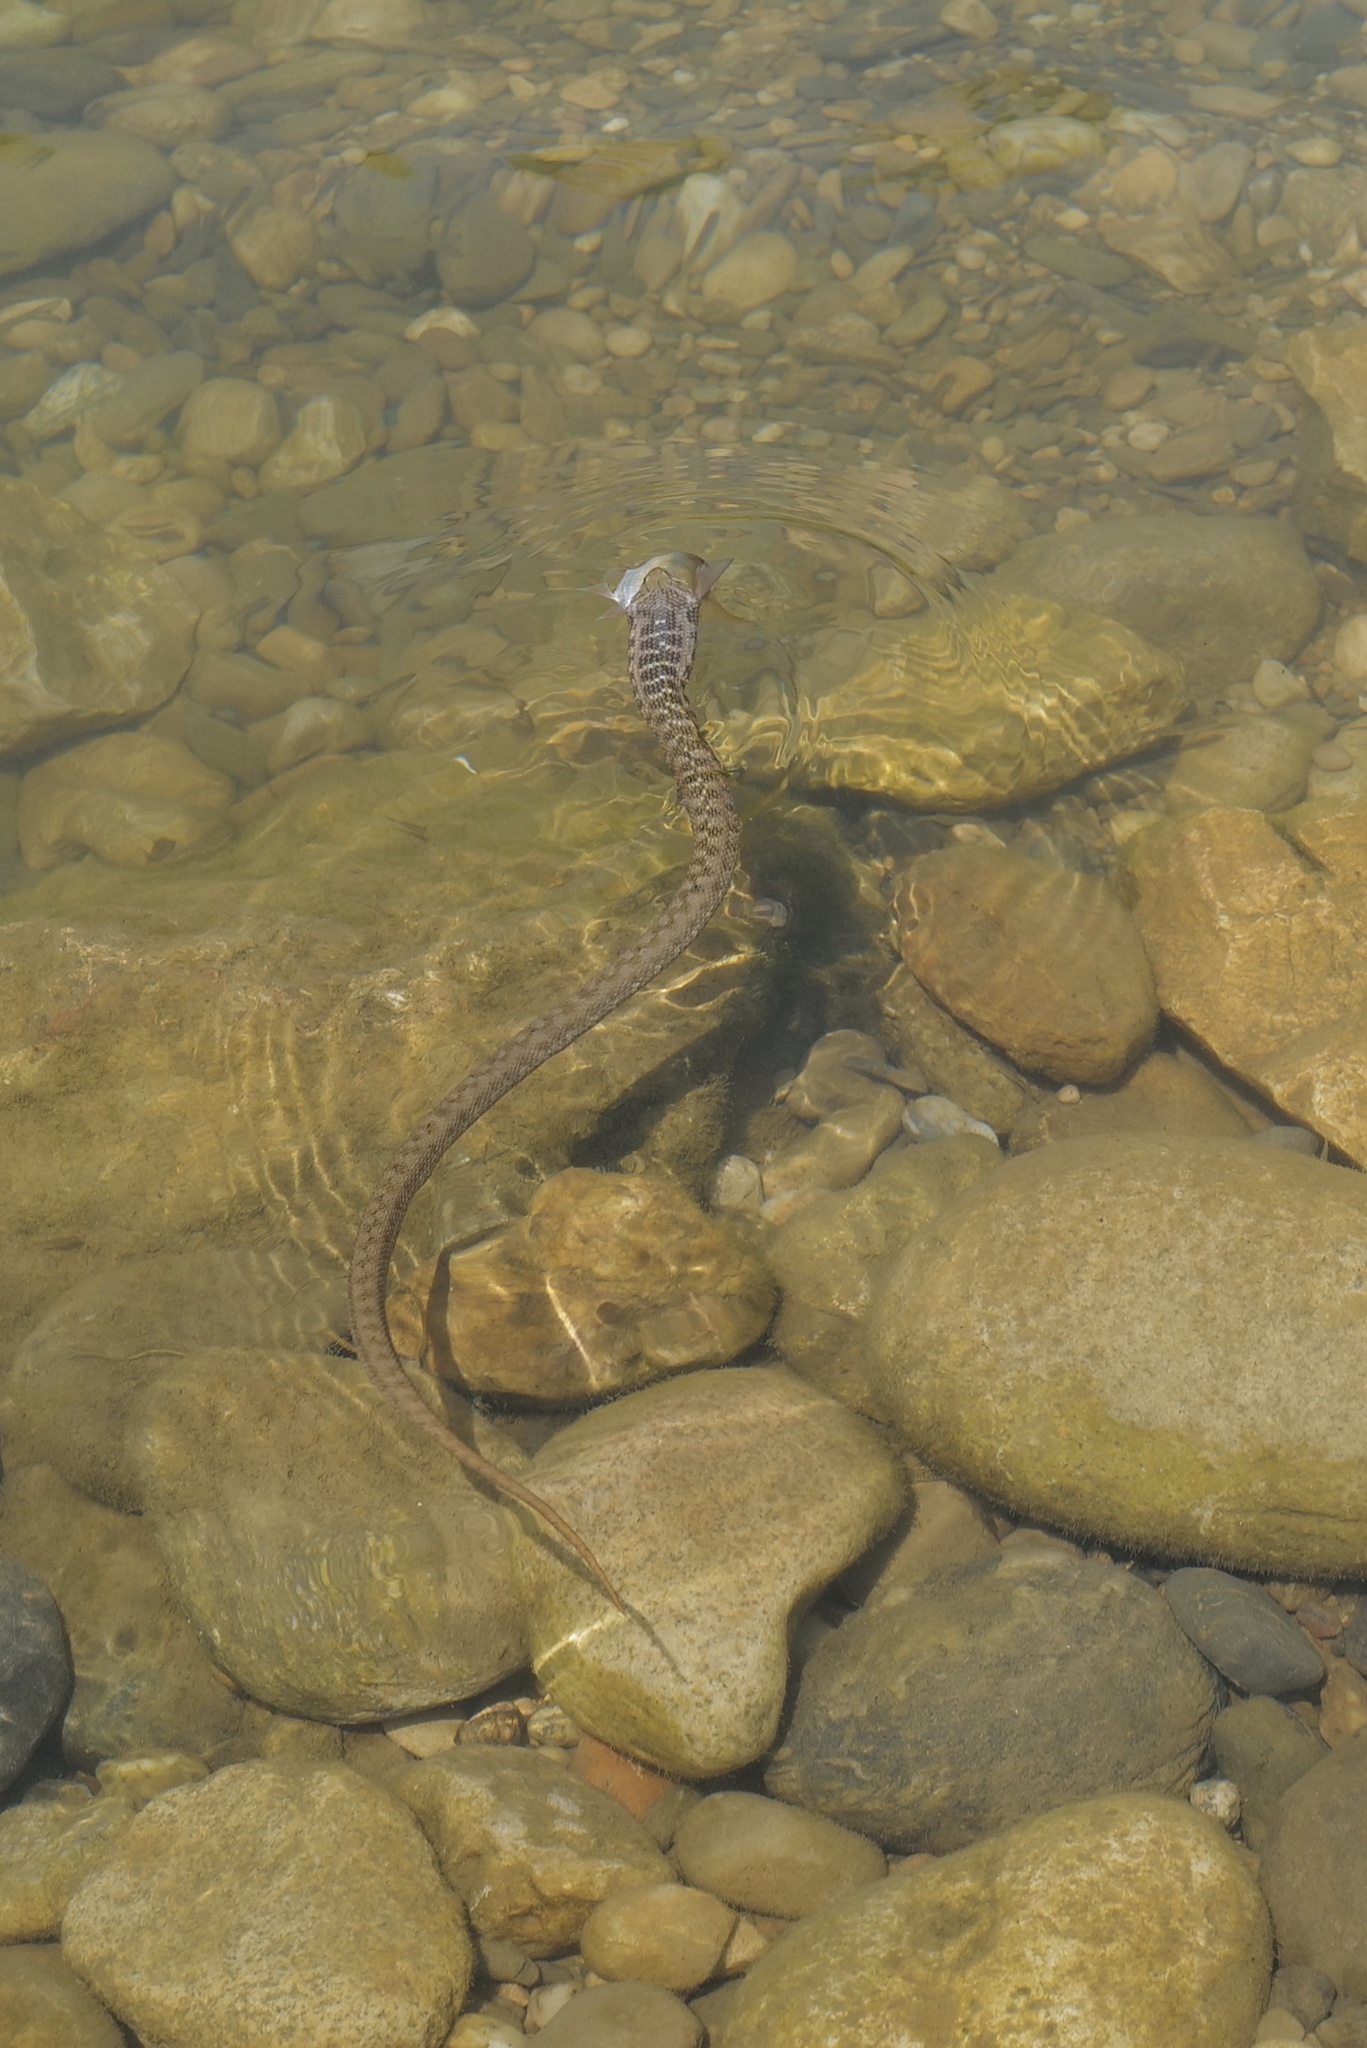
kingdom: Animalia
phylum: Chordata
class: Squamata
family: Colubridae
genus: Natrix
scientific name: Natrix maura
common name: Viperine water snake
